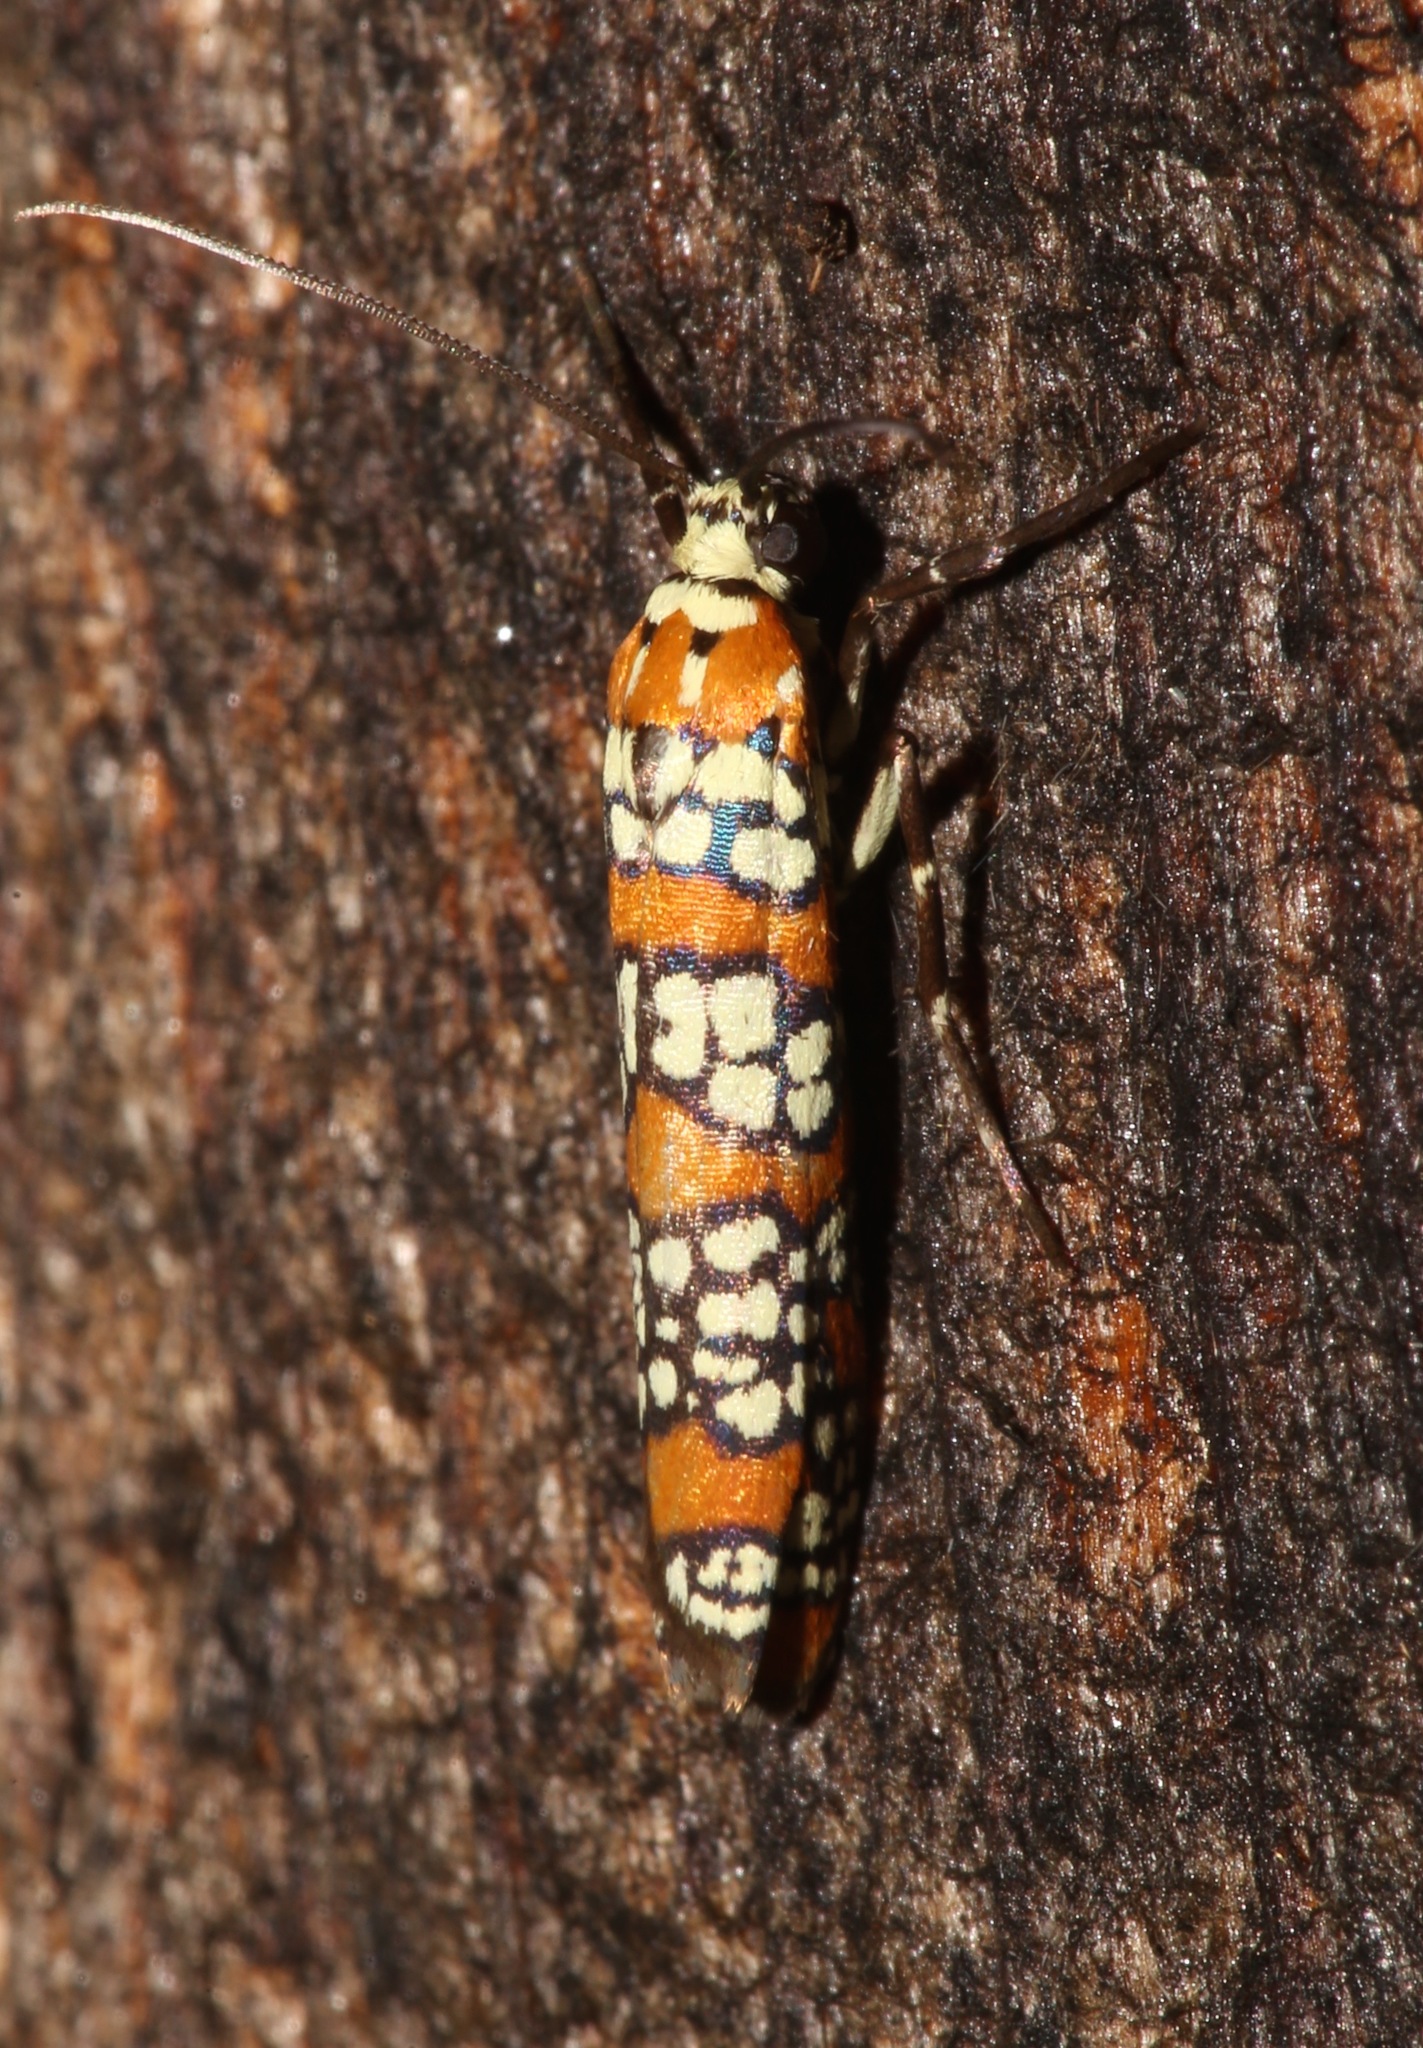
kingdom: Animalia
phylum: Arthropoda
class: Insecta
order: Lepidoptera
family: Attevidae
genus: Atteva
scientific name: Atteva punctella
